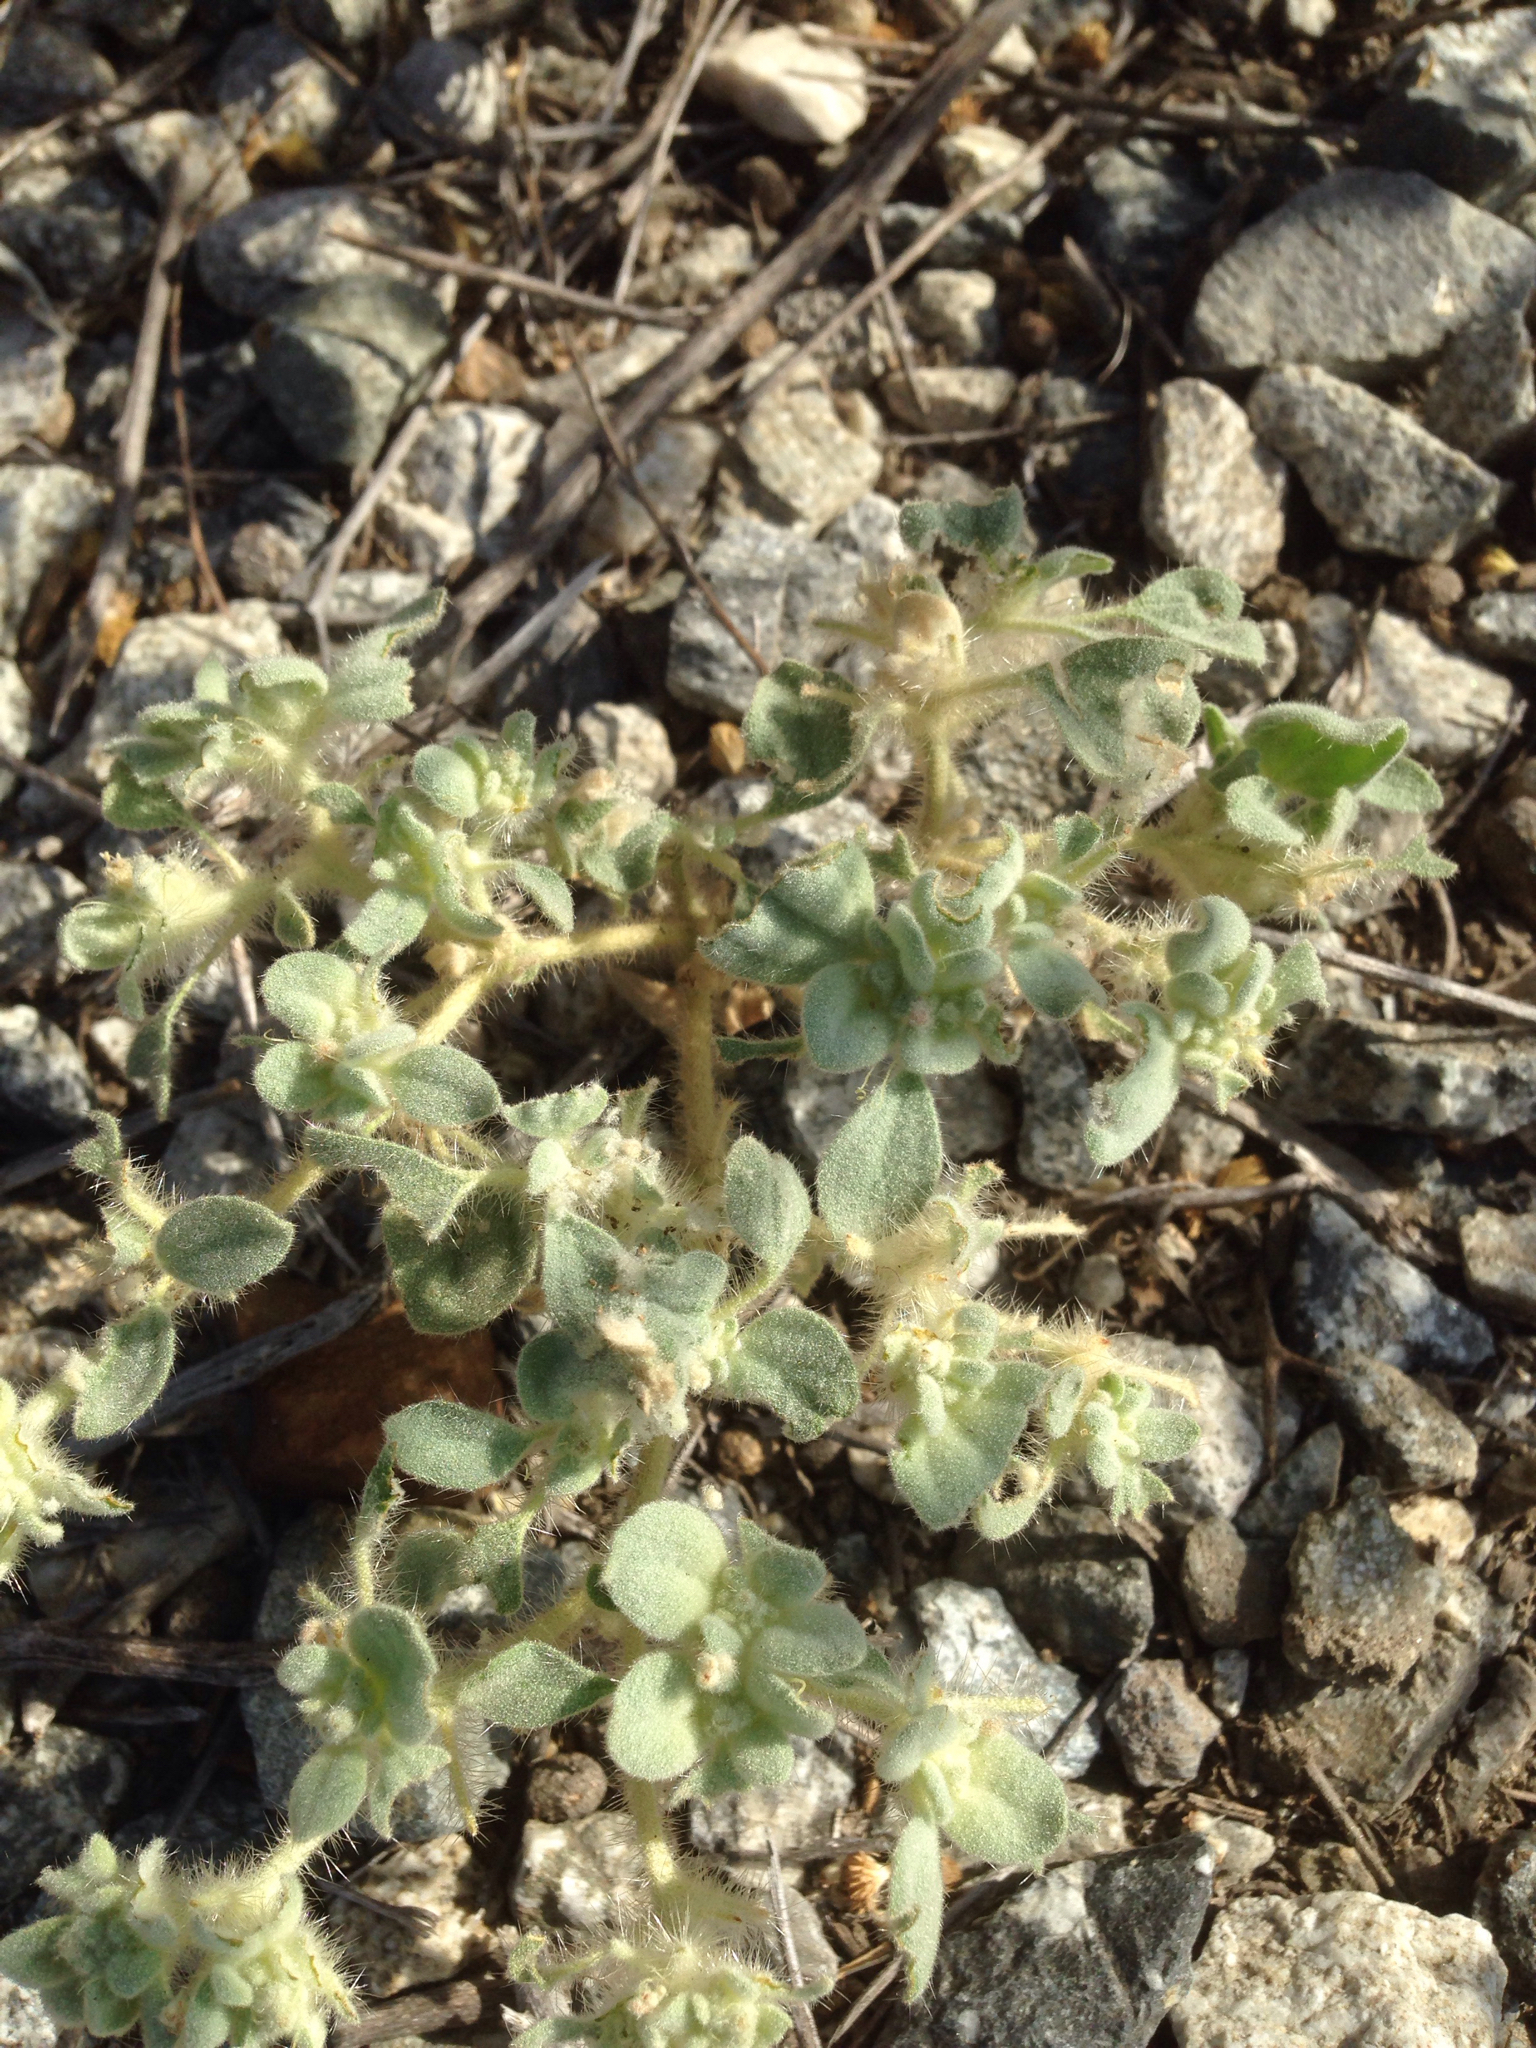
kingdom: Plantae
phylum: Tracheophyta
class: Magnoliopsida
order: Malpighiales
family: Euphorbiaceae
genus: Croton
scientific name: Croton setiger
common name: Dove weed
